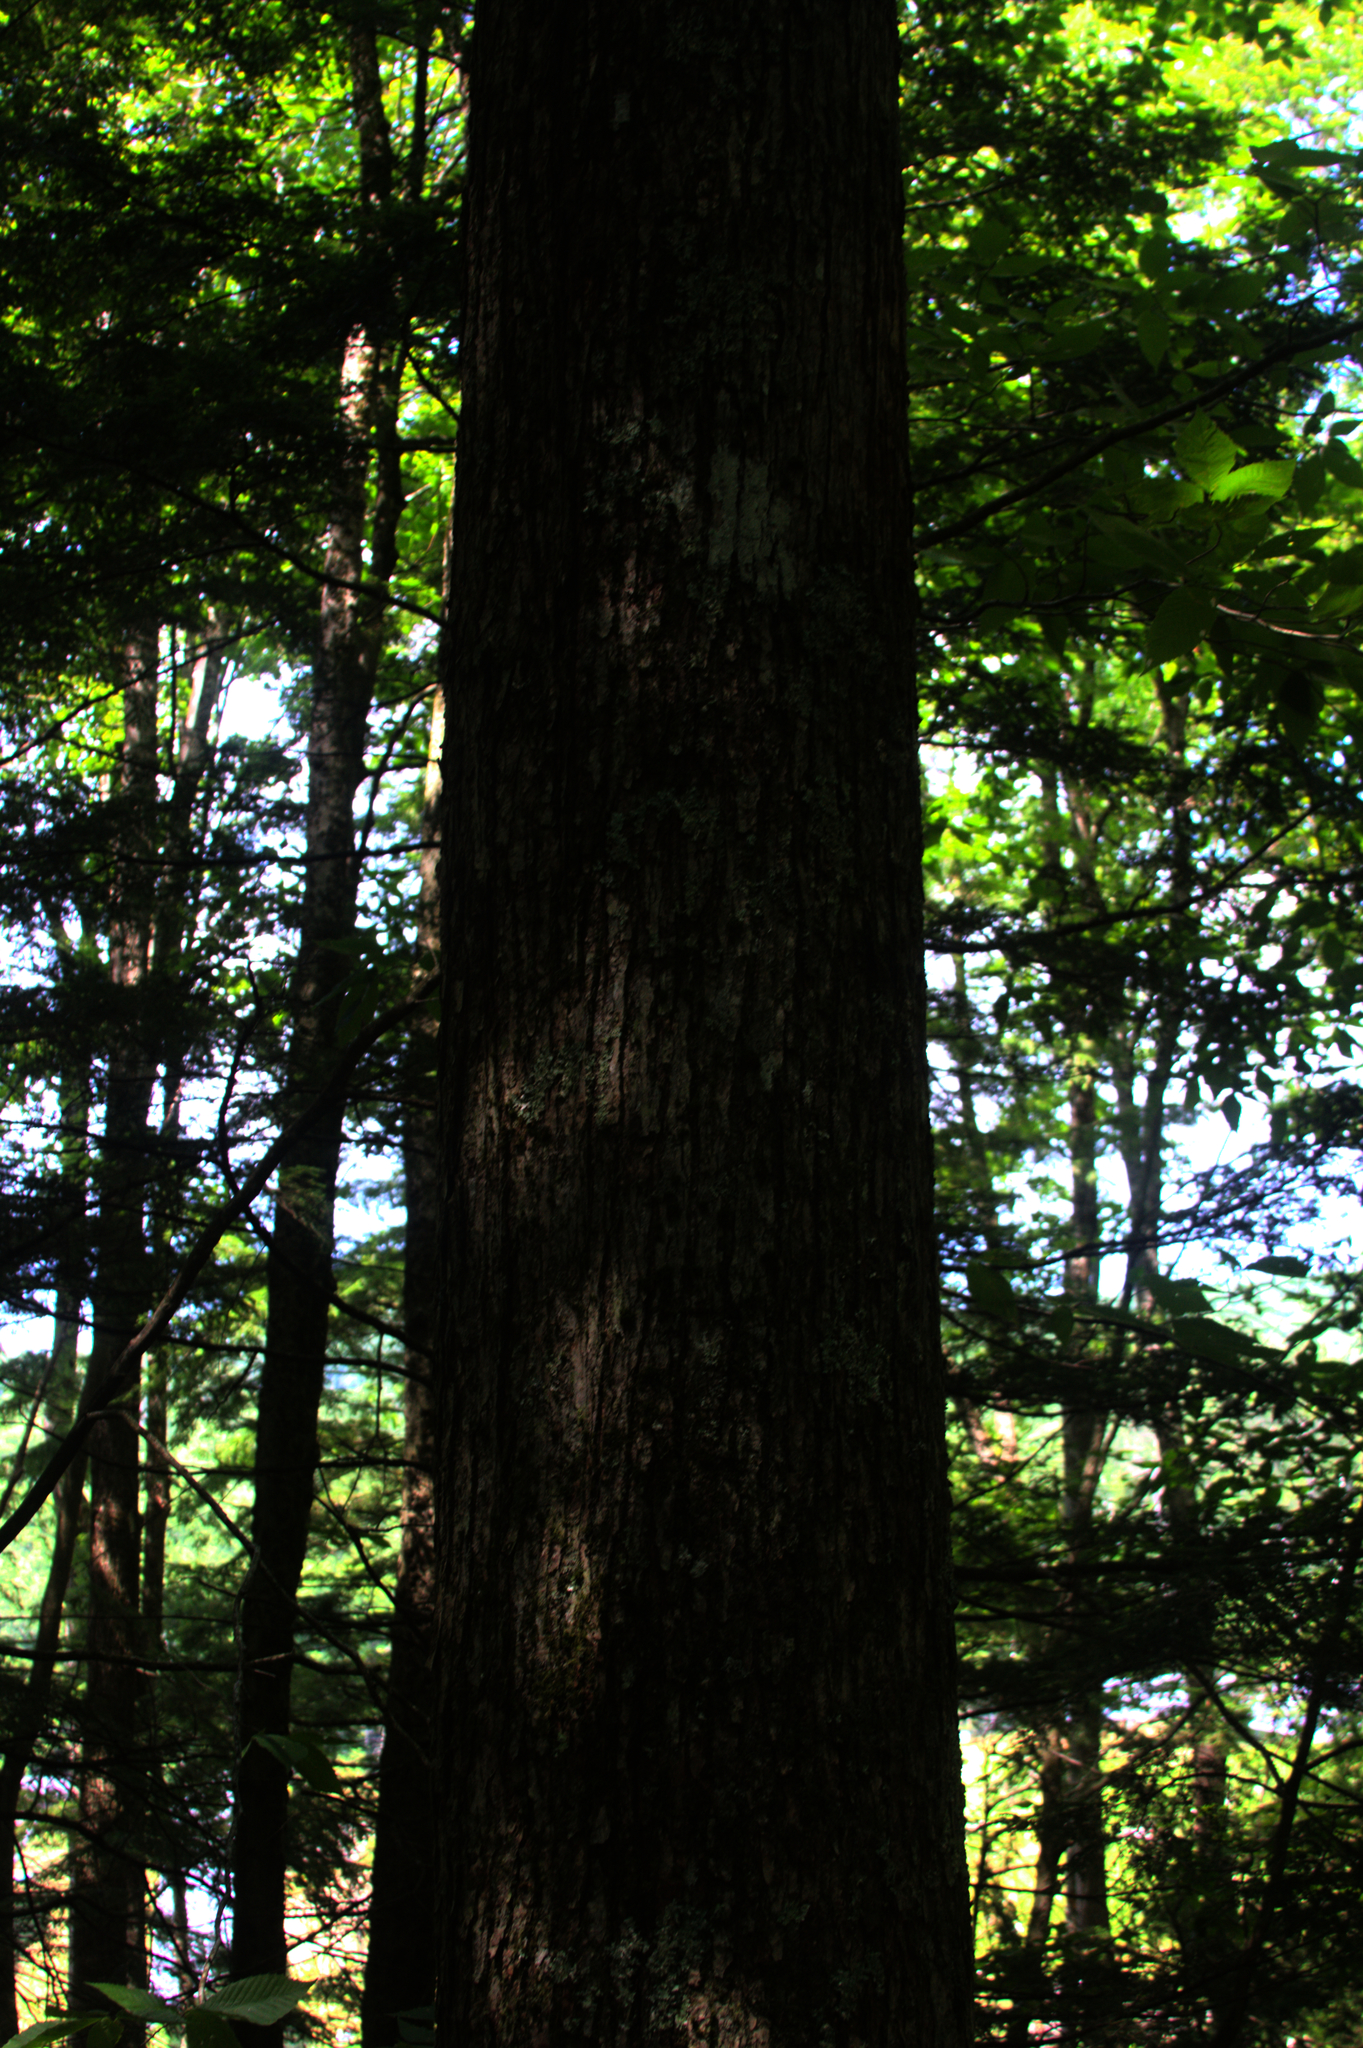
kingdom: Plantae
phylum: Tracheophyta
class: Magnoliopsida
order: Sapindales
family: Sapindaceae
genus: Acer
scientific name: Acer rubrum
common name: Red maple
